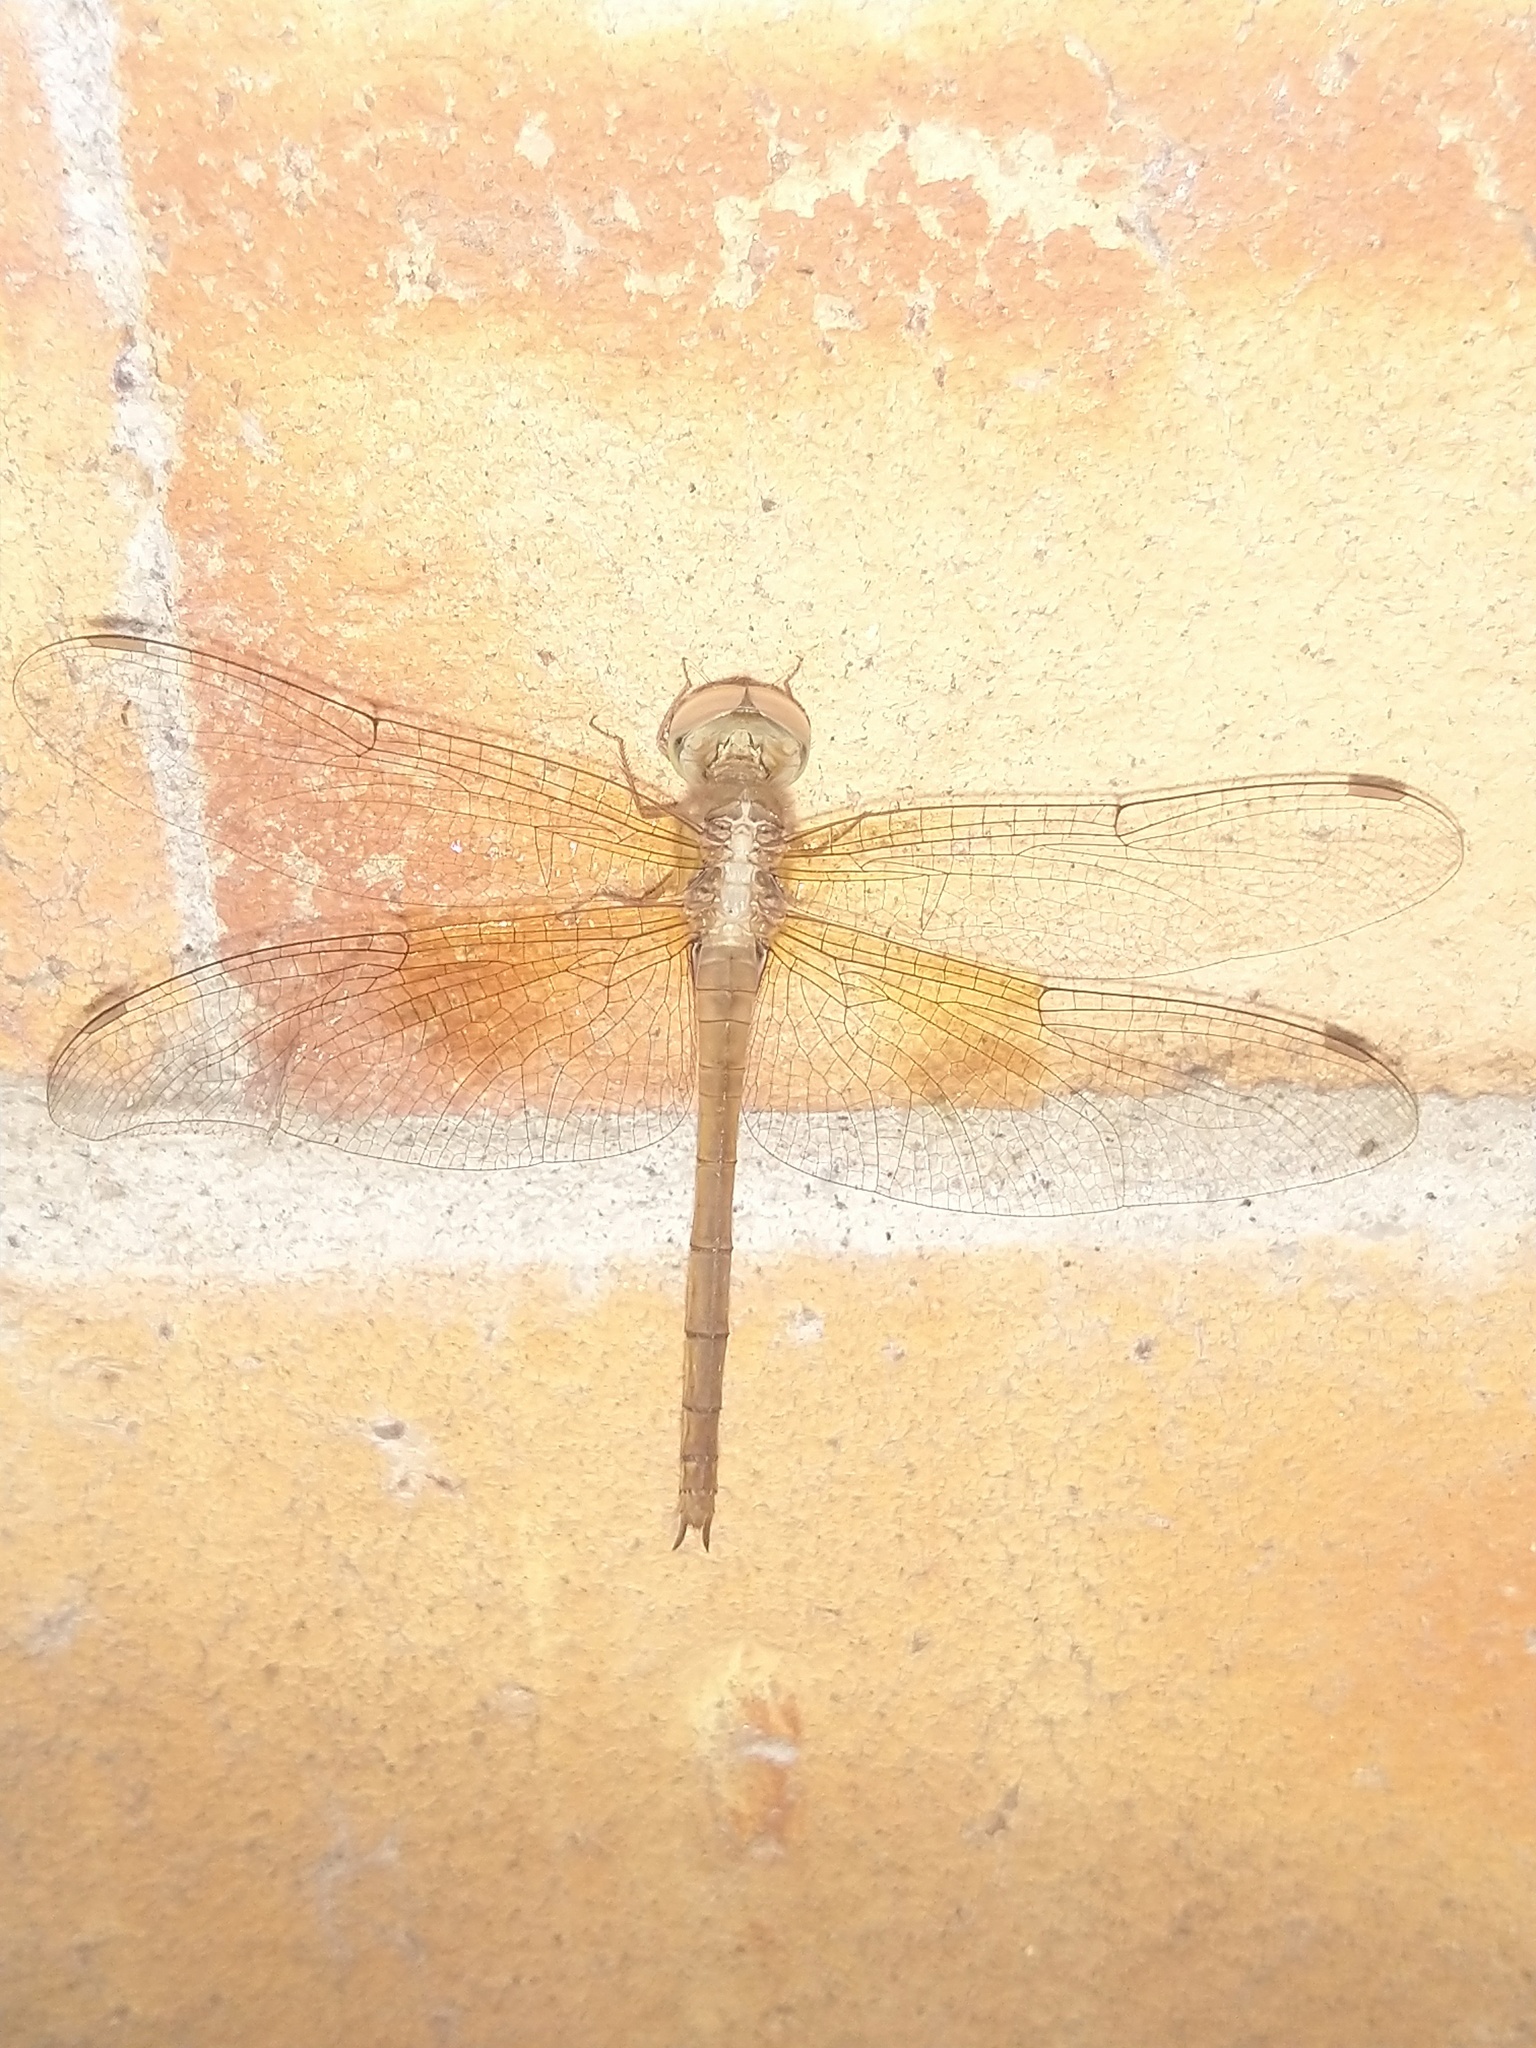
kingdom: Animalia
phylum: Arthropoda
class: Insecta
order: Odonata
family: Libellulidae
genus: Tholymis
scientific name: Tholymis tillarga
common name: Coral-tailed cloud wing
